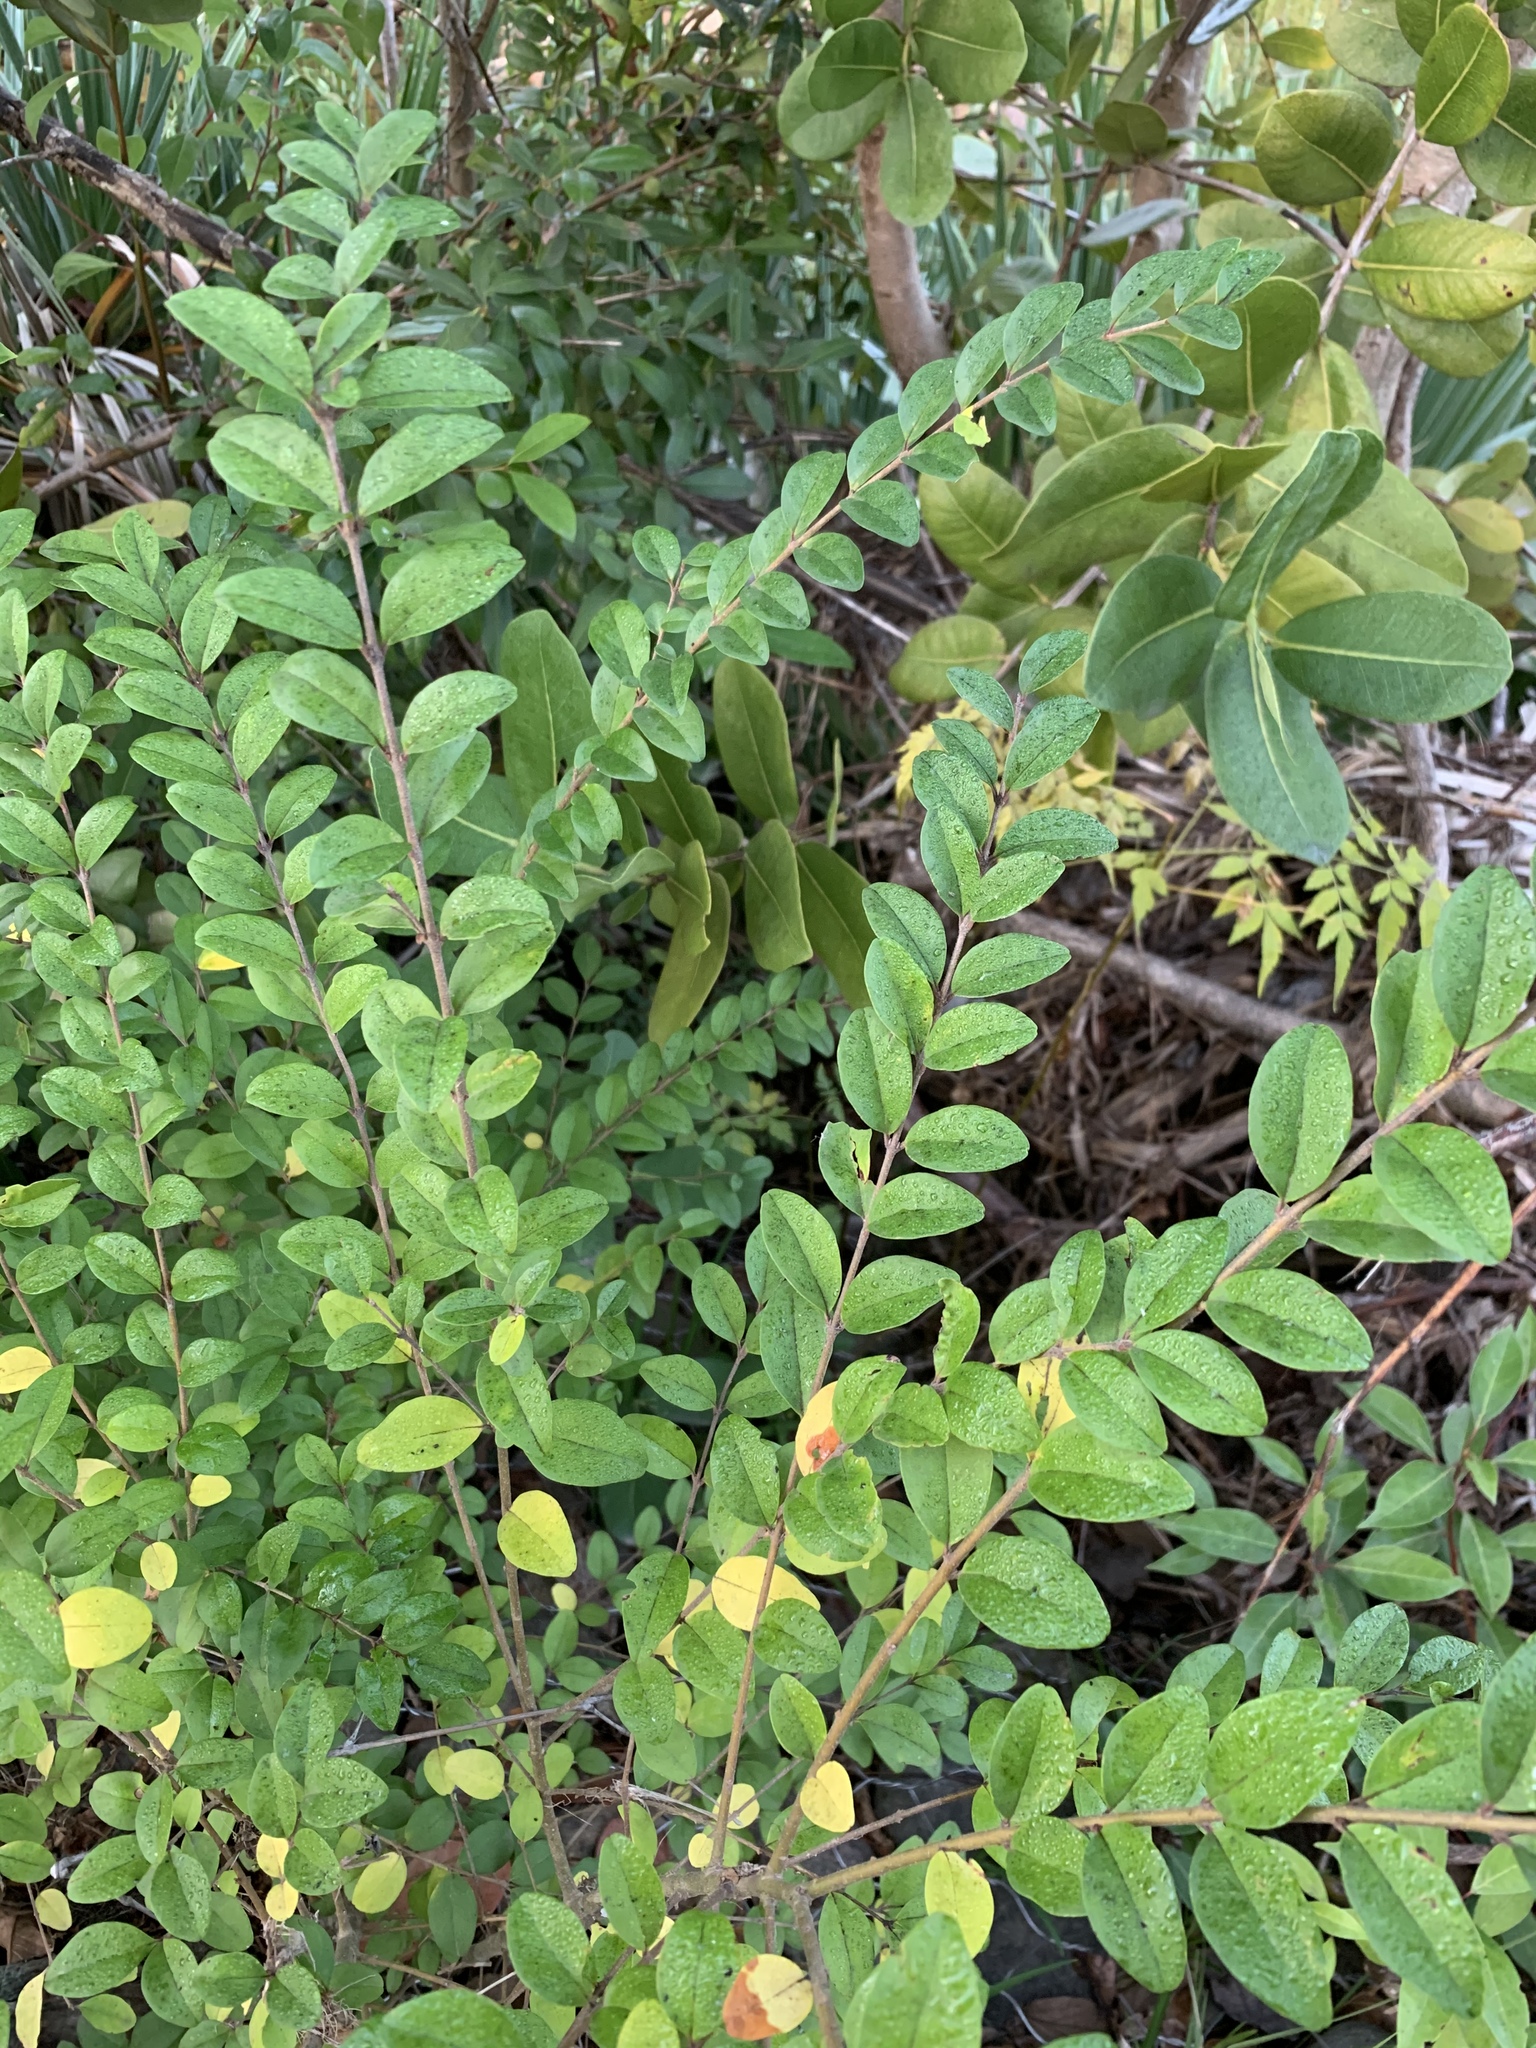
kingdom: Plantae
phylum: Tracheophyta
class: Magnoliopsida
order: Lamiales
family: Oleaceae
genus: Ligustrum
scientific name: Ligustrum sinense
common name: Chinese privet
